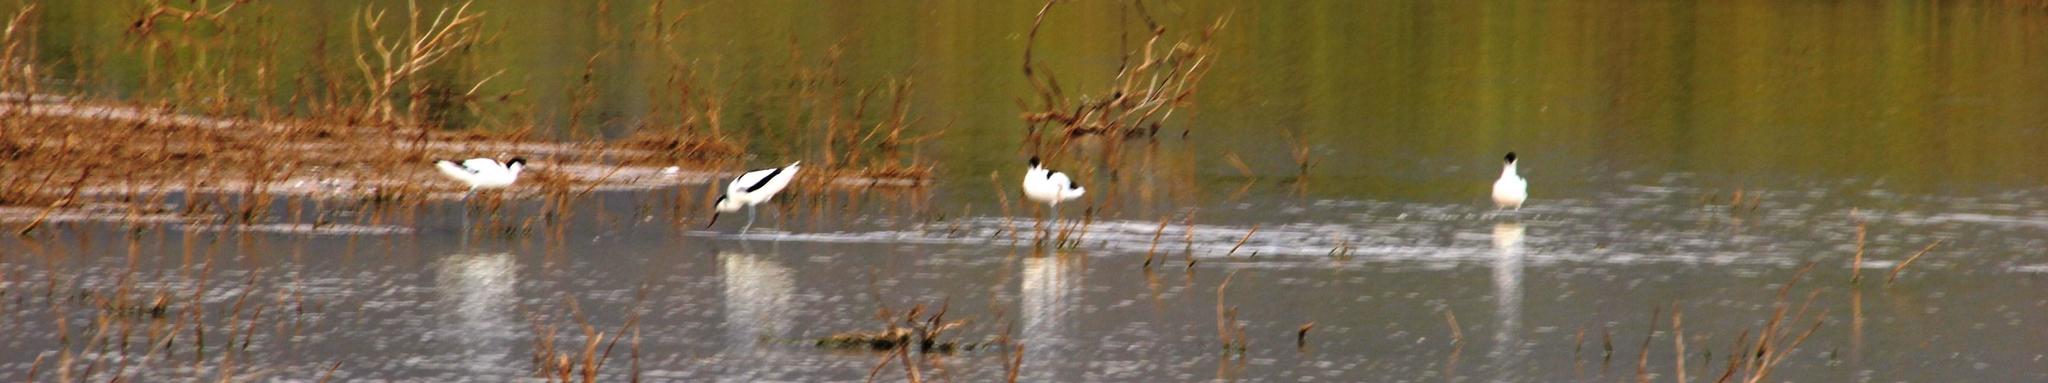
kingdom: Animalia
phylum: Chordata
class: Aves
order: Charadriiformes
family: Recurvirostridae
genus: Recurvirostra
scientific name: Recurvirostra avosetta
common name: Pied avocet
